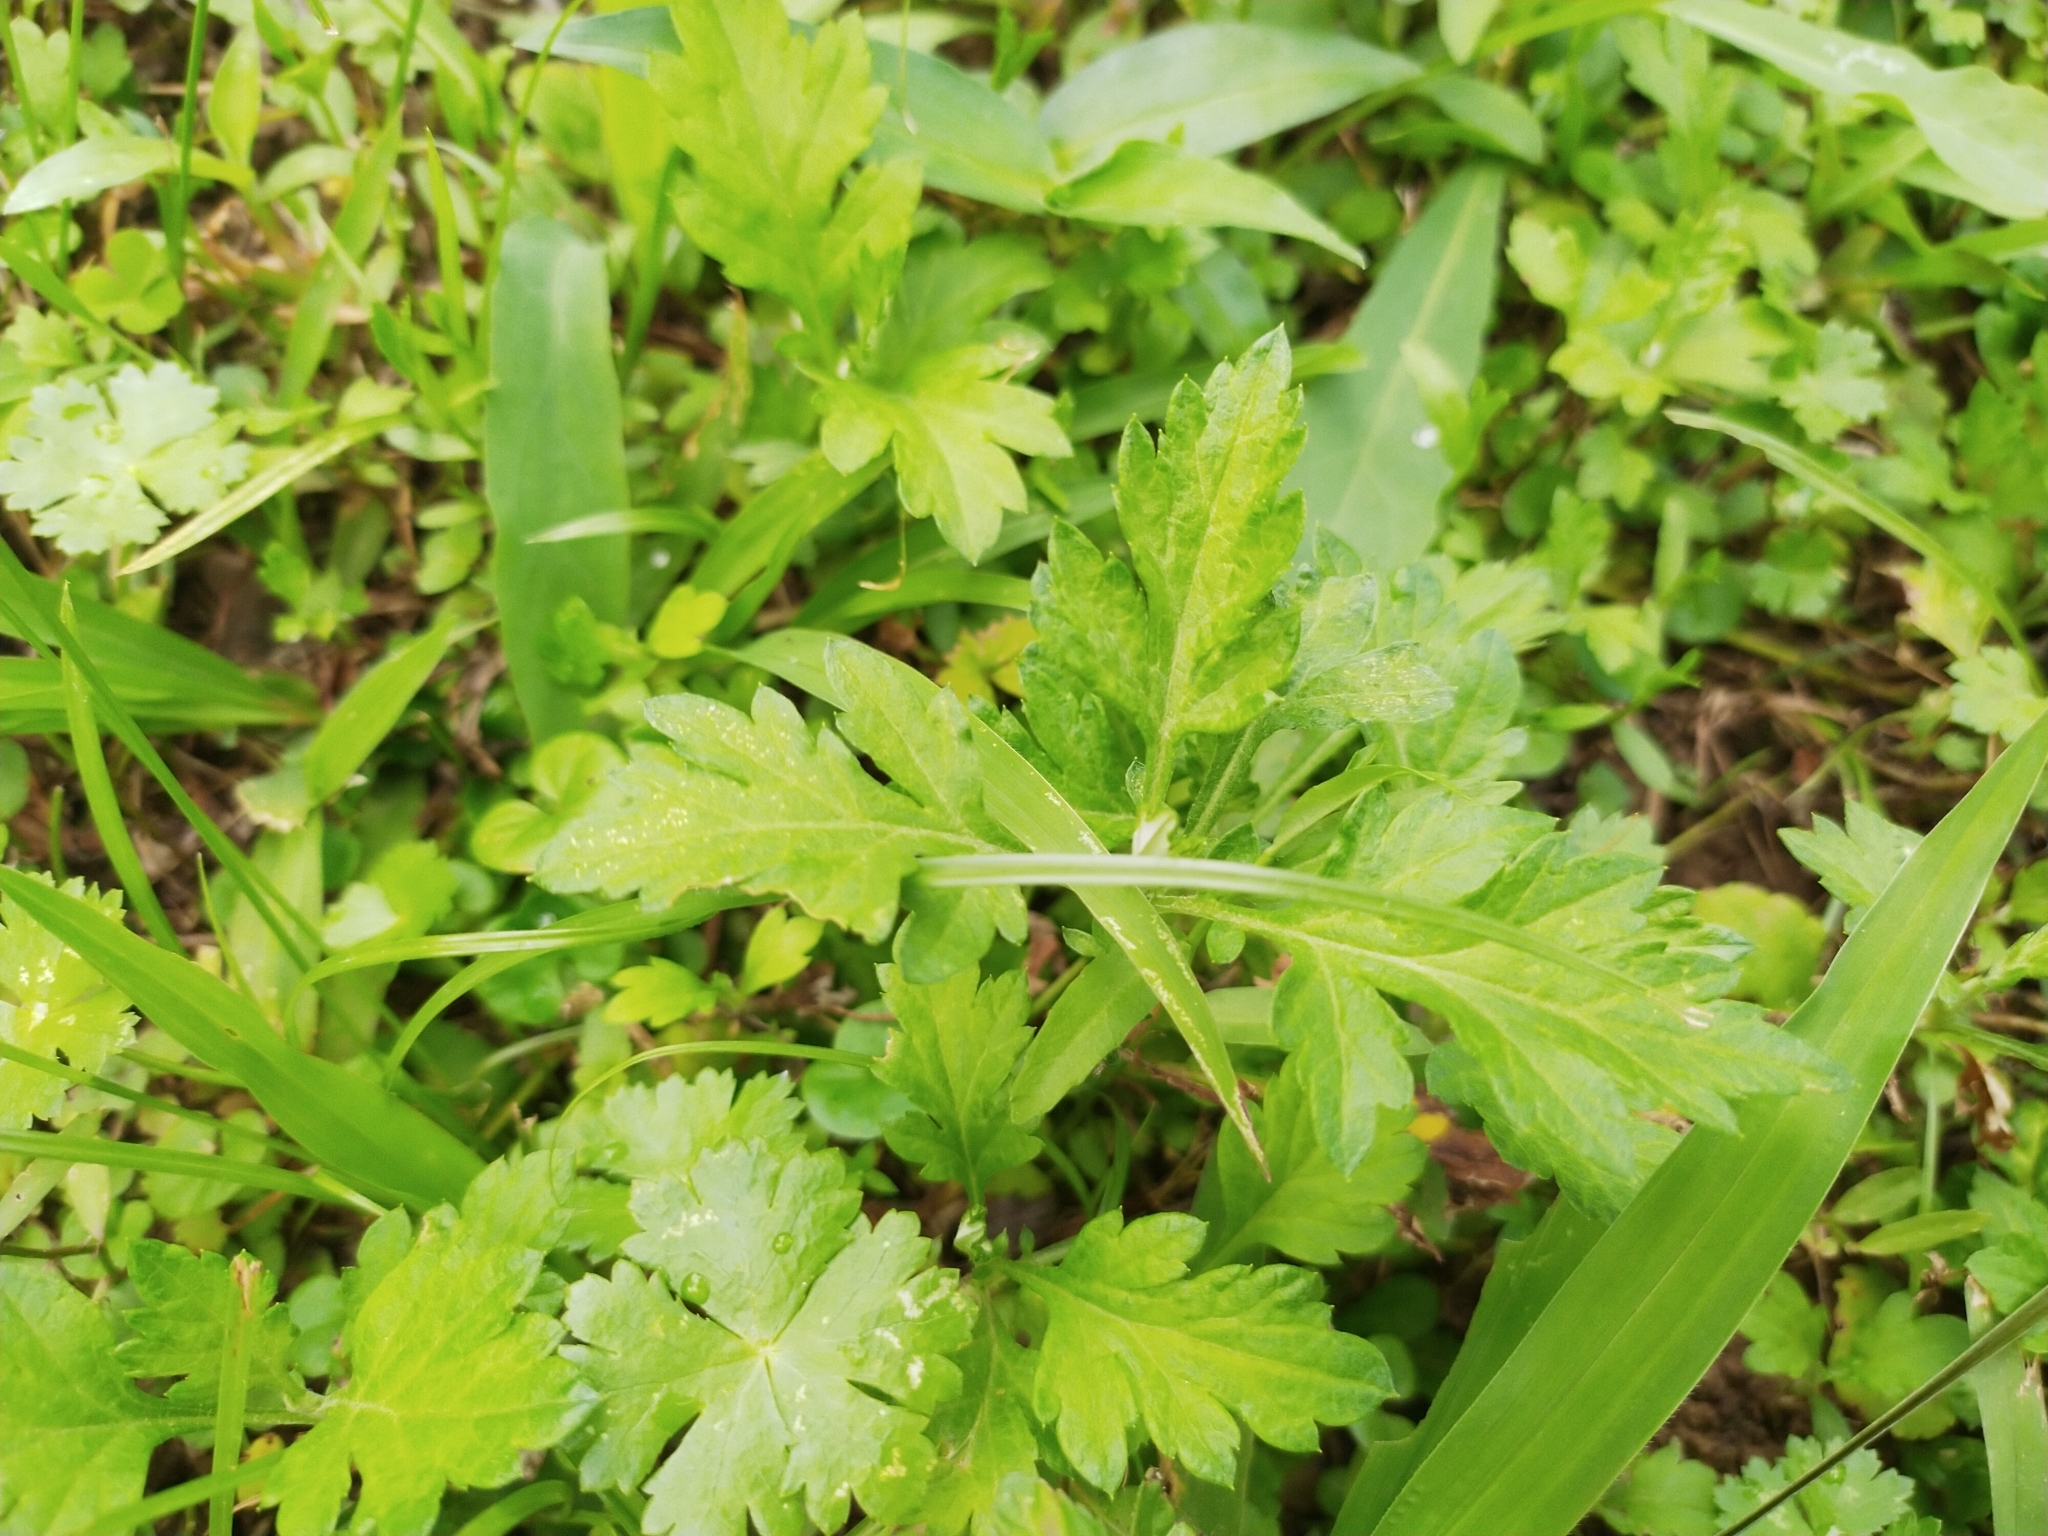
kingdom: Plantae
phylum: Tracheophyta
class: Magnoliopsida
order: Asterales
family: Asteraceae
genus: Artemisia
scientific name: Artemisia indica
